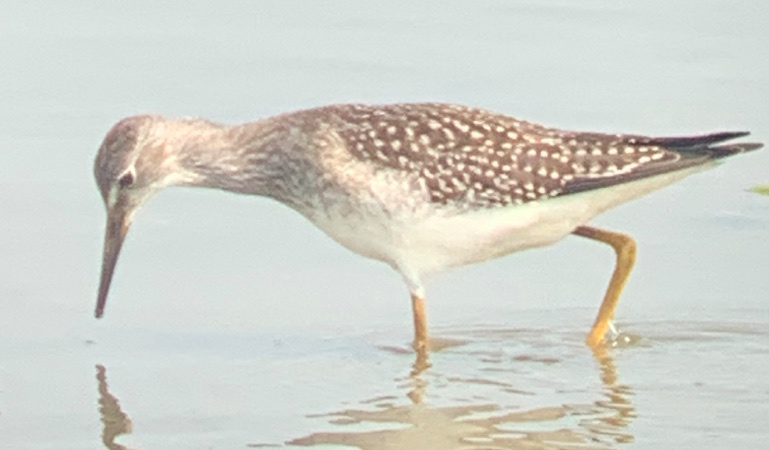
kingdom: Animalia
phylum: Chordata
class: Aves
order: Charadriiformes
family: Scolopacidae
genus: Tringa
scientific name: Tringa flavipes
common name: Lesser yellowlegs
